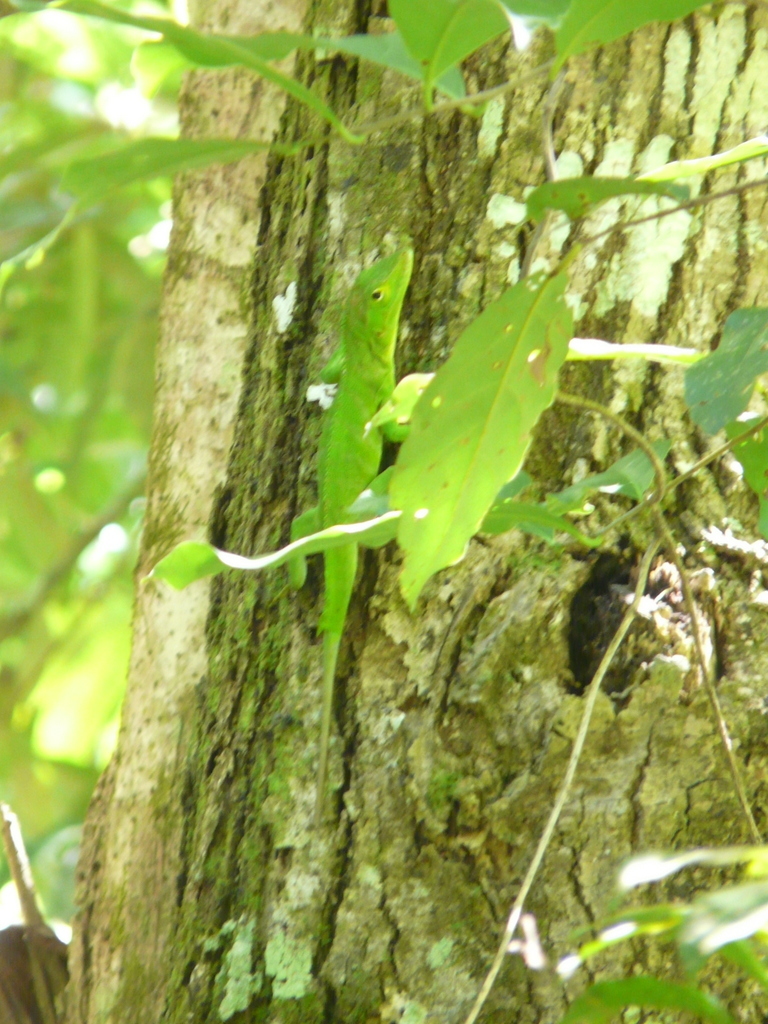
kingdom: Animalia
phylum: Chordata
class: Squamata
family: Dactyloidae
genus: Anolis
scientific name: Anolis garmani
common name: Jamaican giant anole
